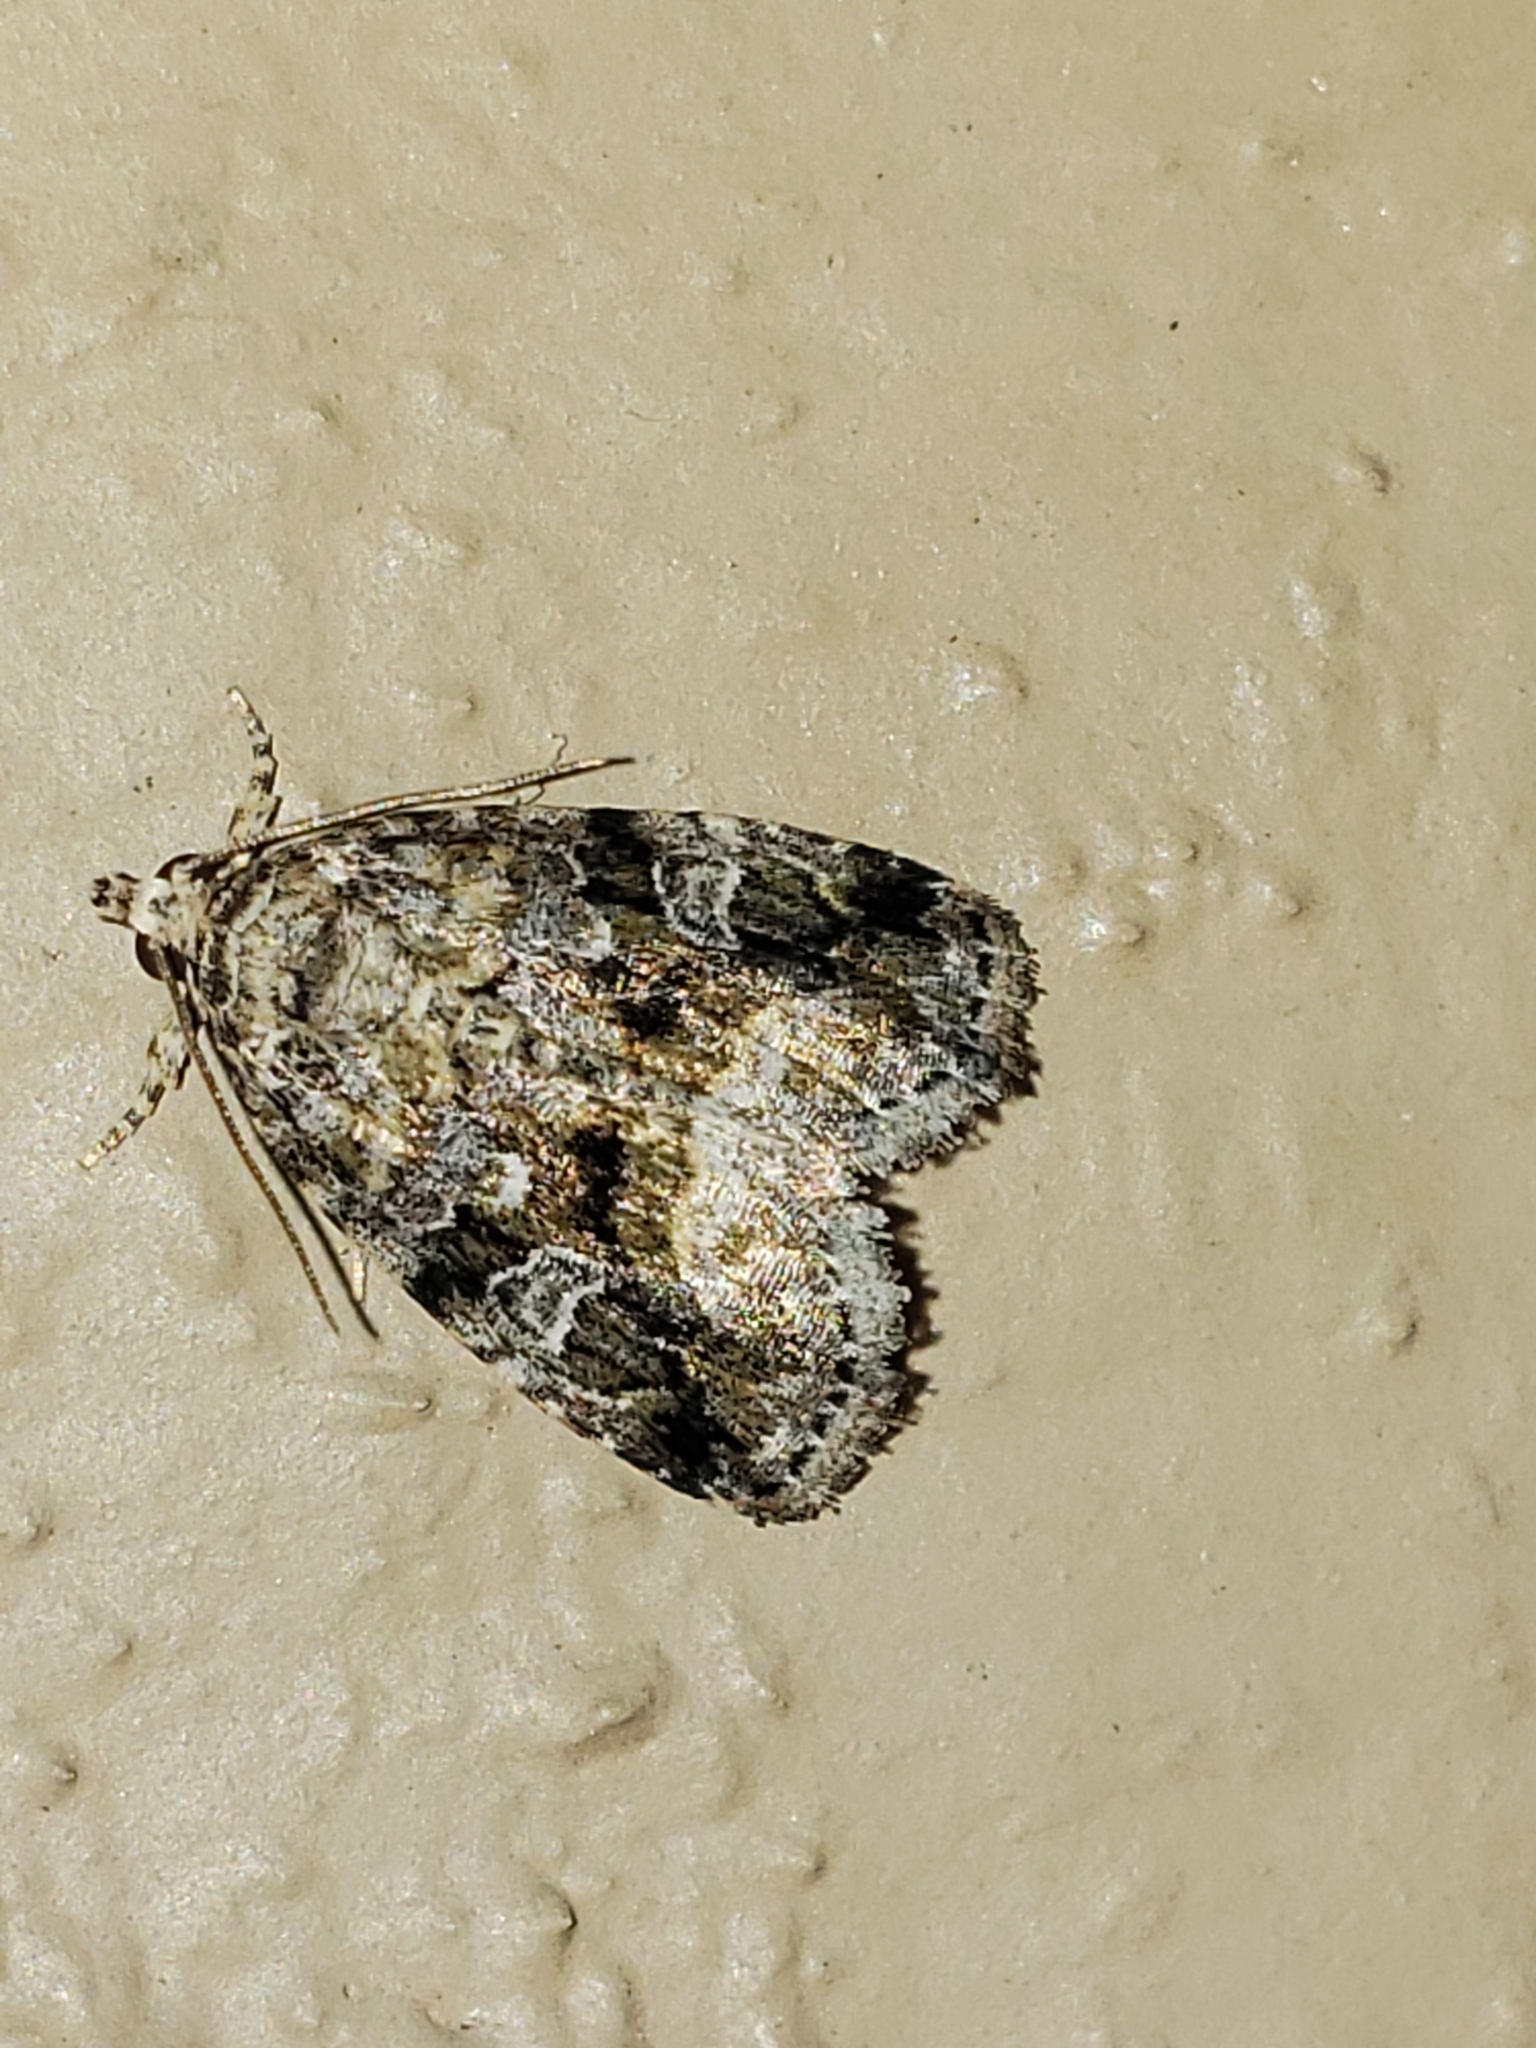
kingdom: Animalia
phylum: Arthropoda
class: Insecta
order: Lepidoptera
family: Noctuidae
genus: Protodeltote
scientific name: Protodeltote muscosula
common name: Large mossy glyph
